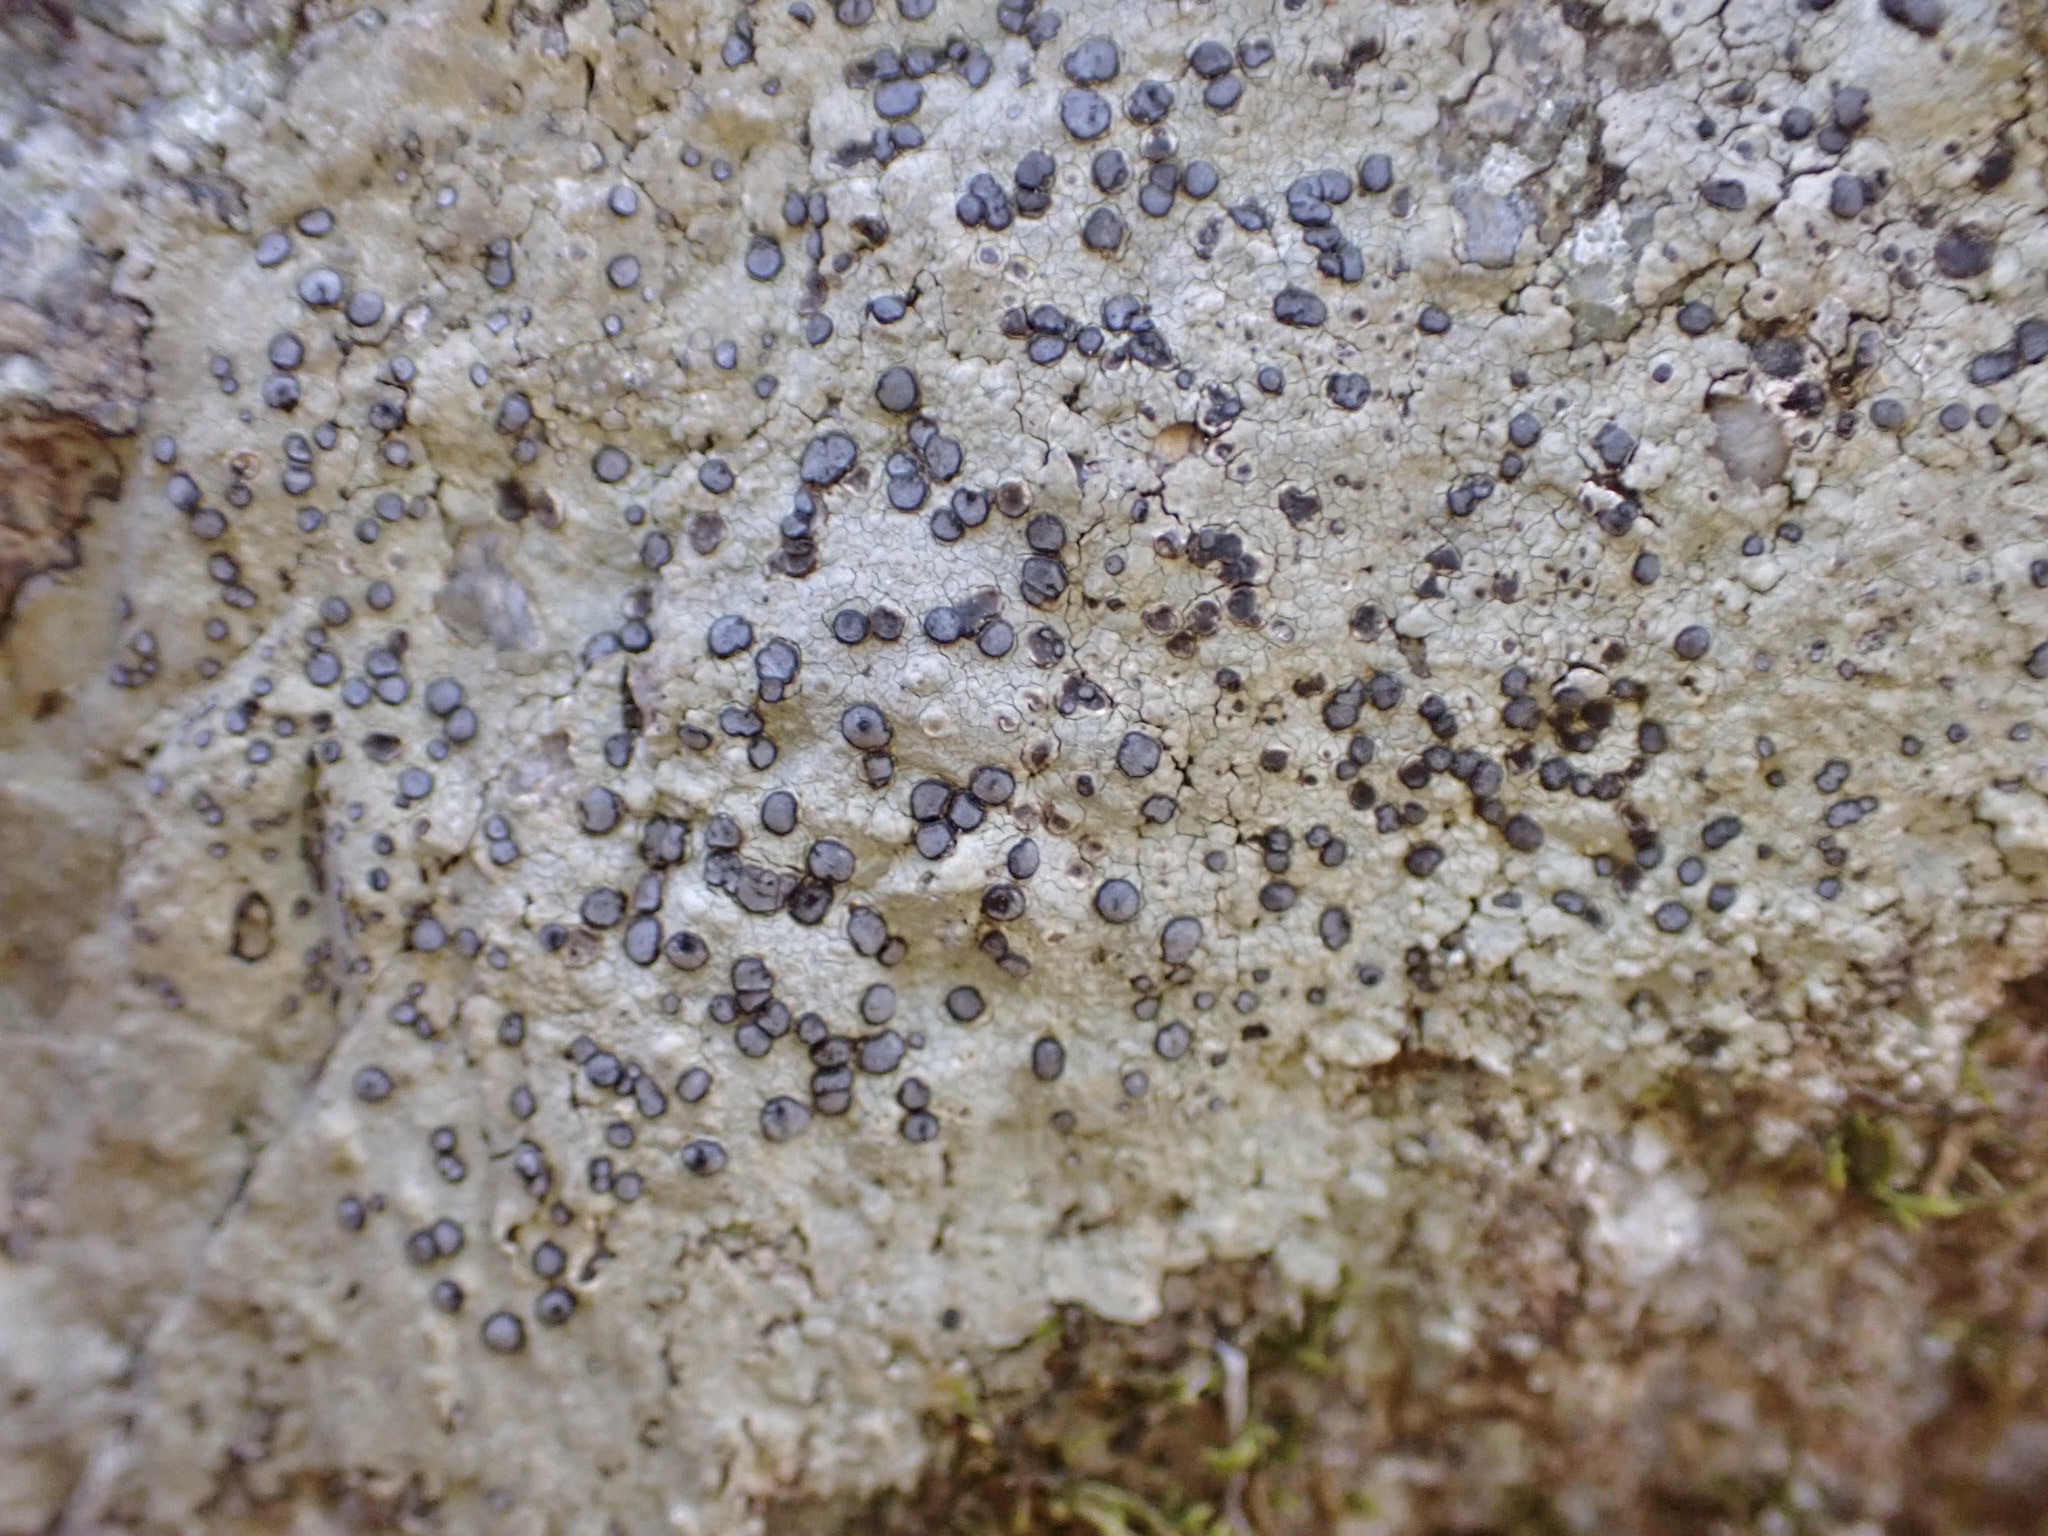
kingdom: Fungi
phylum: Ascomycota
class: Lecanoromycetes
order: Lecideales
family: Lecideaceae
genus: Porpidia
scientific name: Porpidia albocaerulescens
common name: Smokey-eyed boulder lichen
